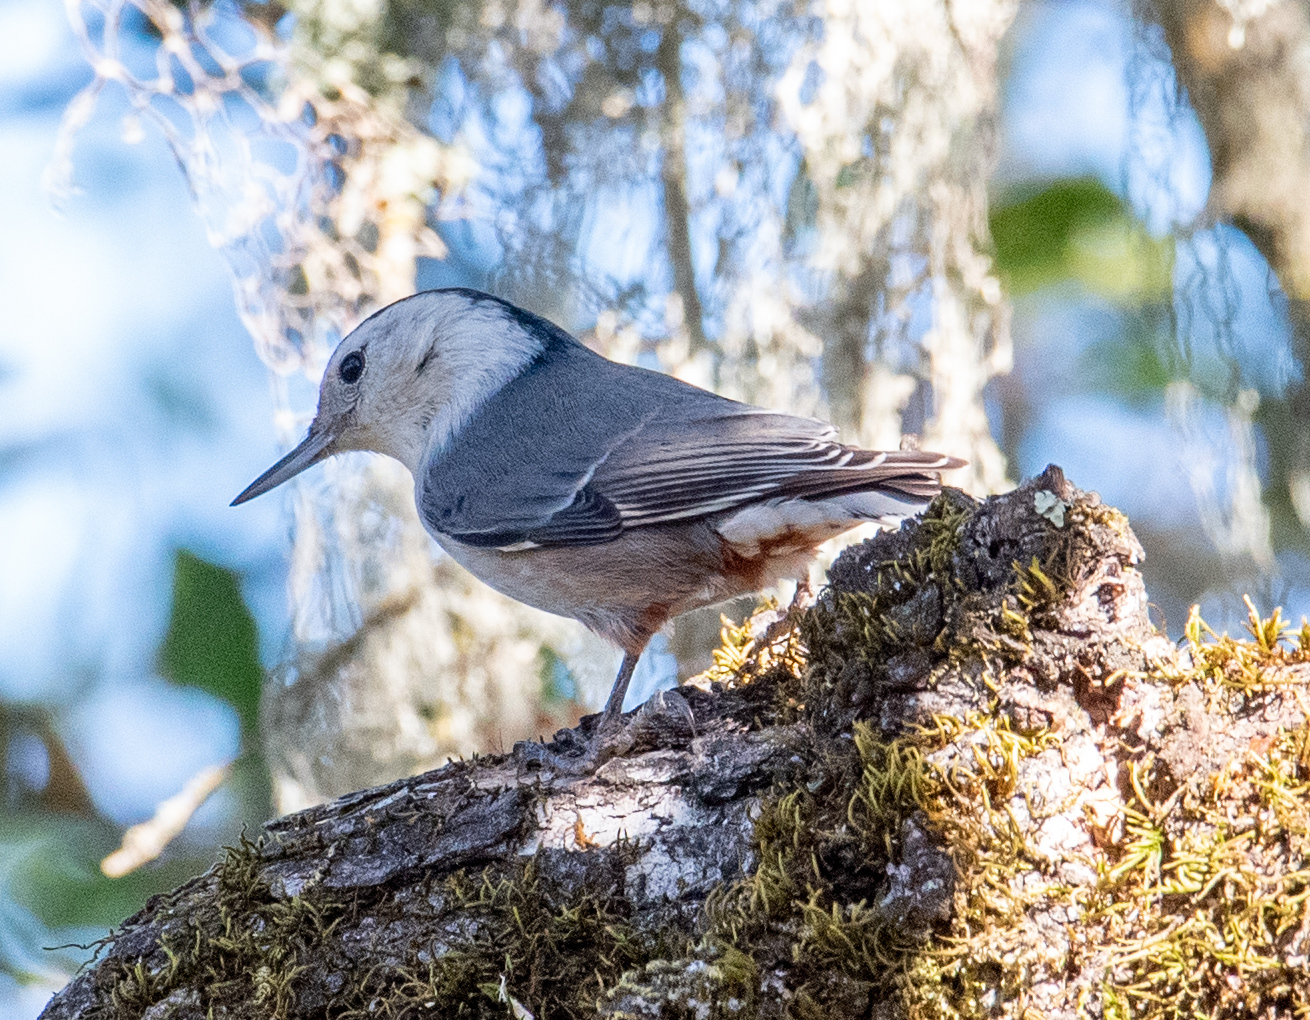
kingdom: Animalia
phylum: Chordata
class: Aves
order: Passeriformes
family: Sittidae
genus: Sitta
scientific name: Sitta carolinensis
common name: White-breasted nuthatch
